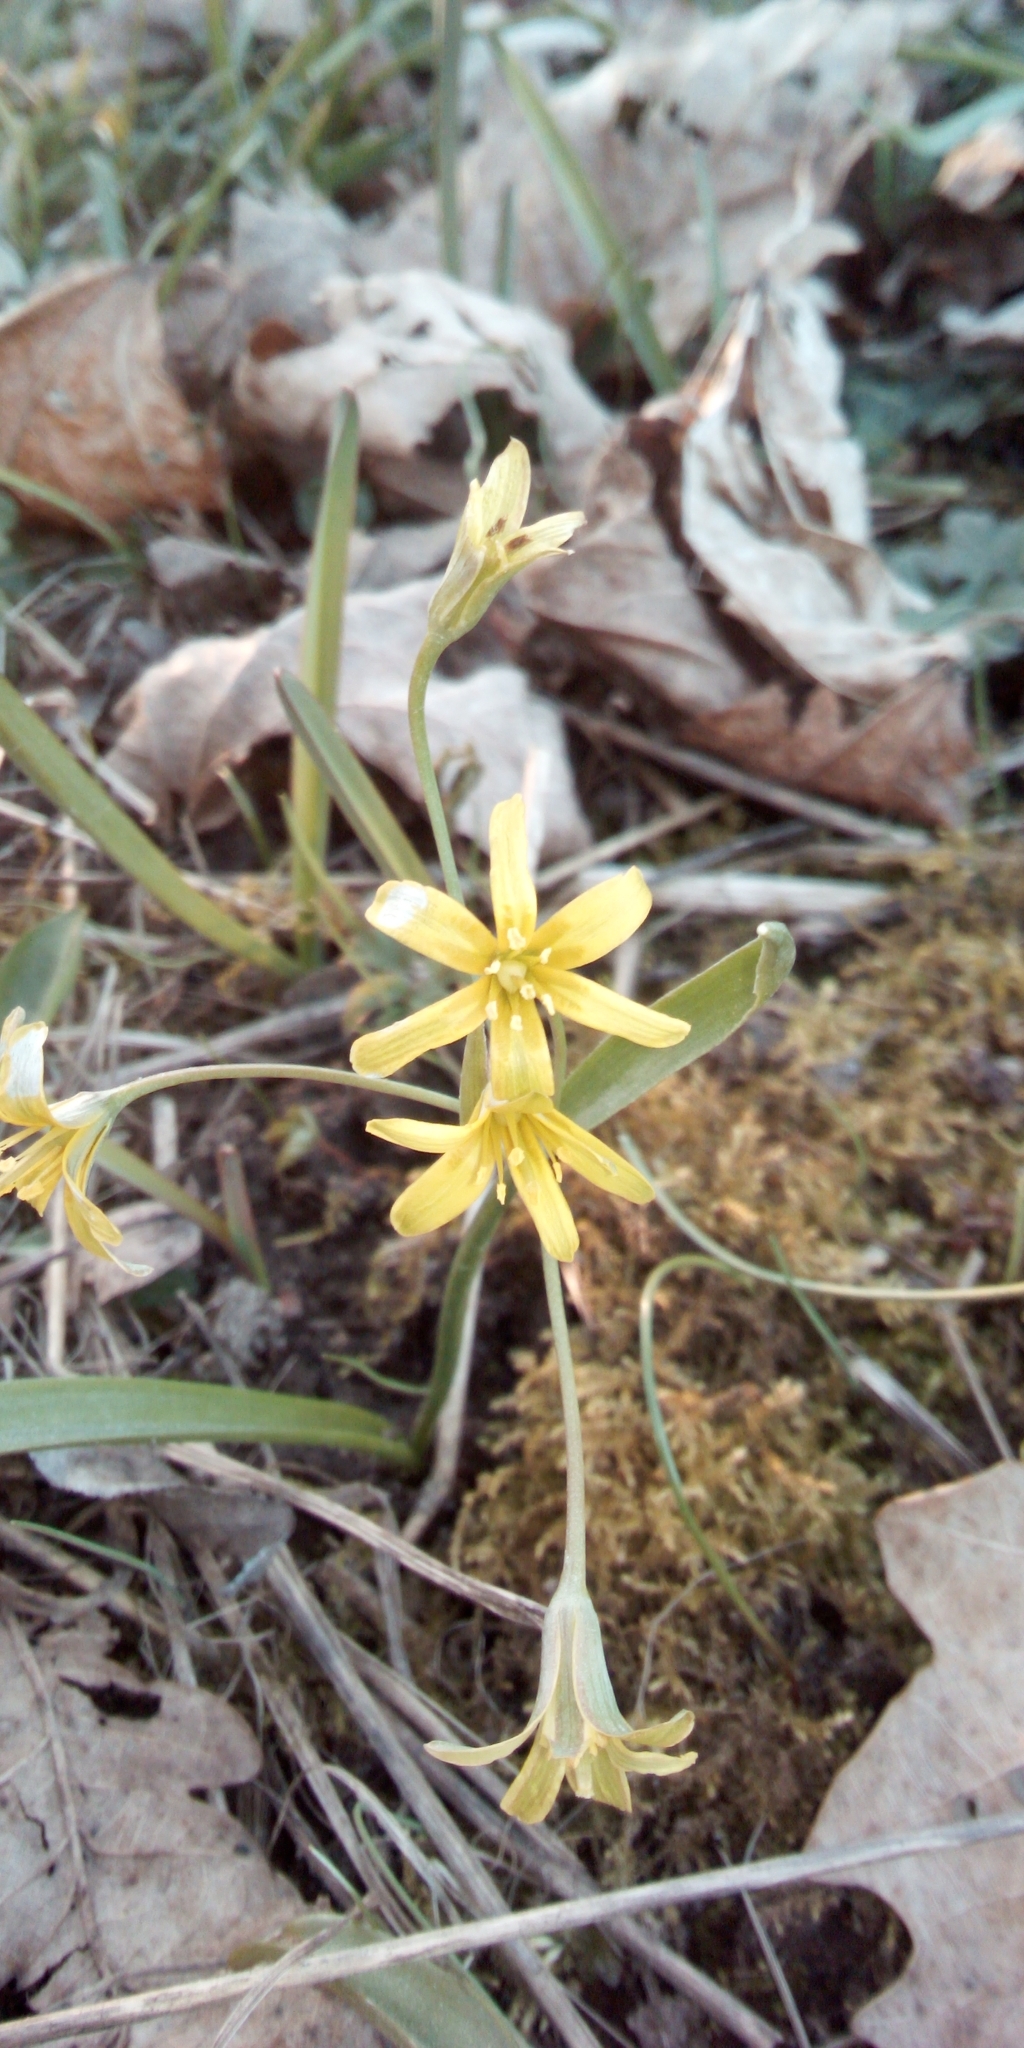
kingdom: Plantae
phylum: Tracheophyta
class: Liliopsida
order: Liliales
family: Liliaceae
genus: Gagea
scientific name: Gagea lutea
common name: Yellow star-of-bethlehem
